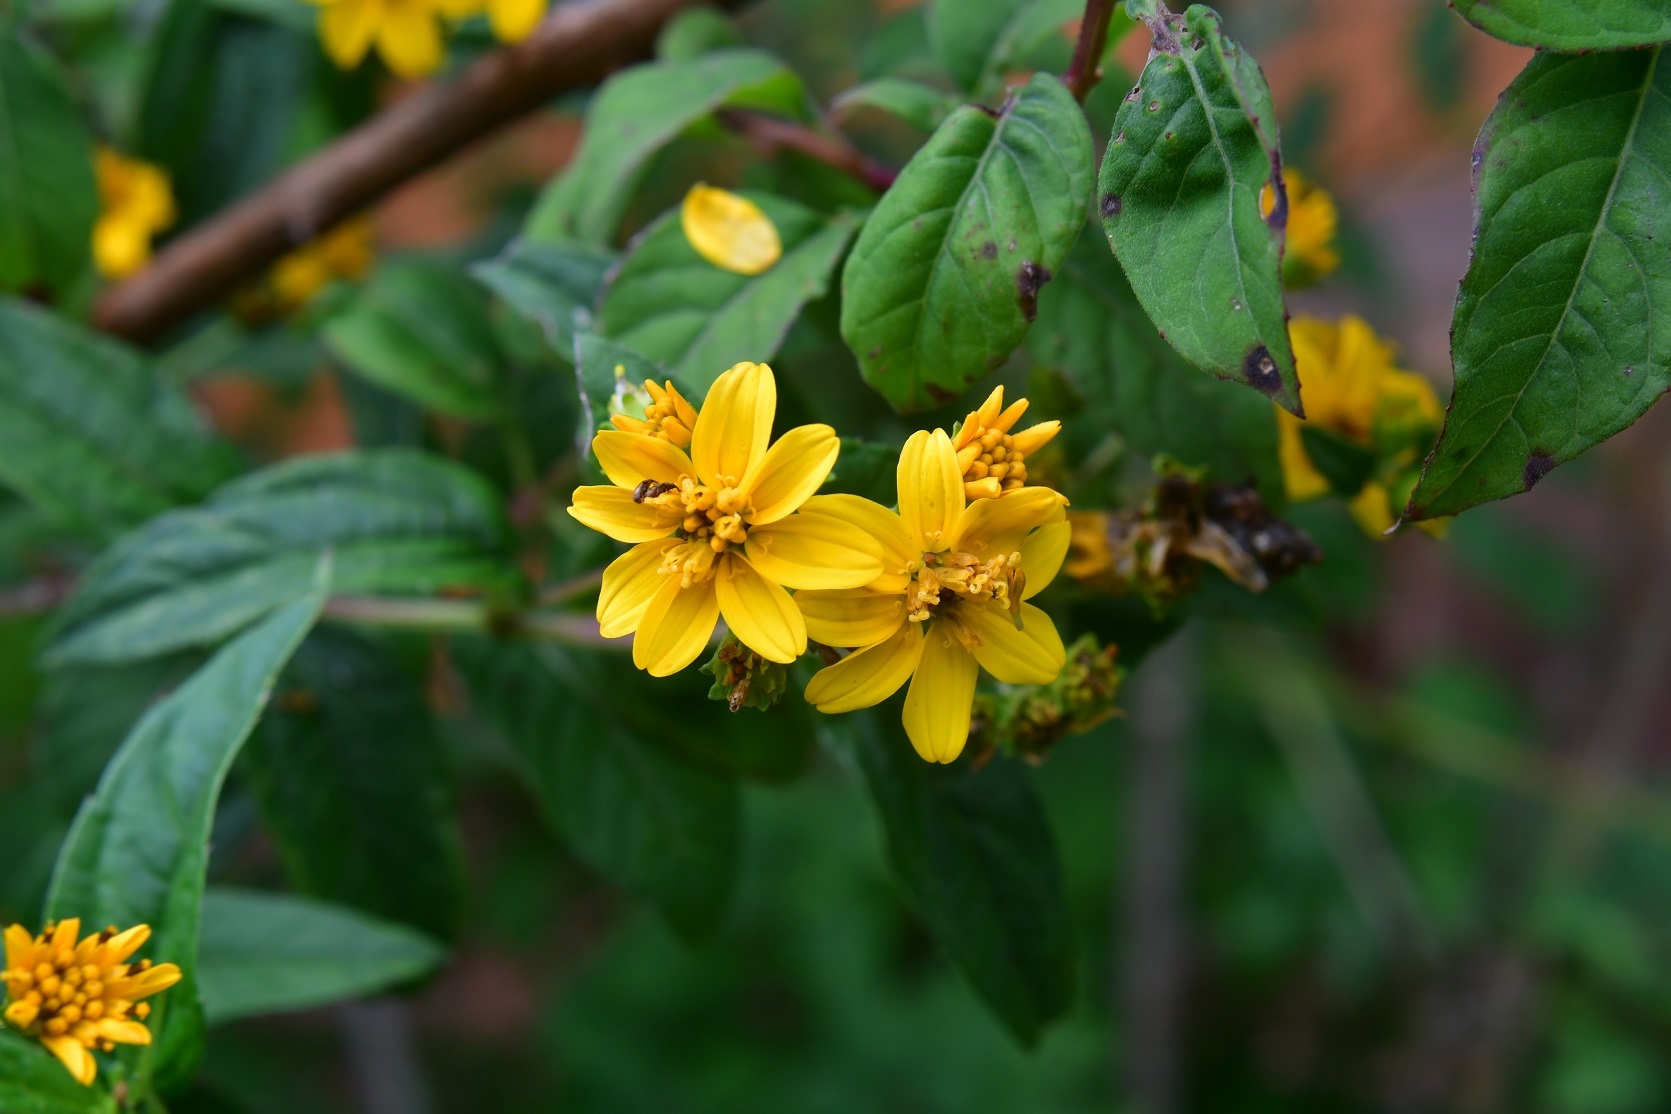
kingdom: Plantae
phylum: Tracheophyta
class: Magnoliopsida
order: Asterales
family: Asteraceae
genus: Perymenium
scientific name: Perymenium ghiesbreghtii
